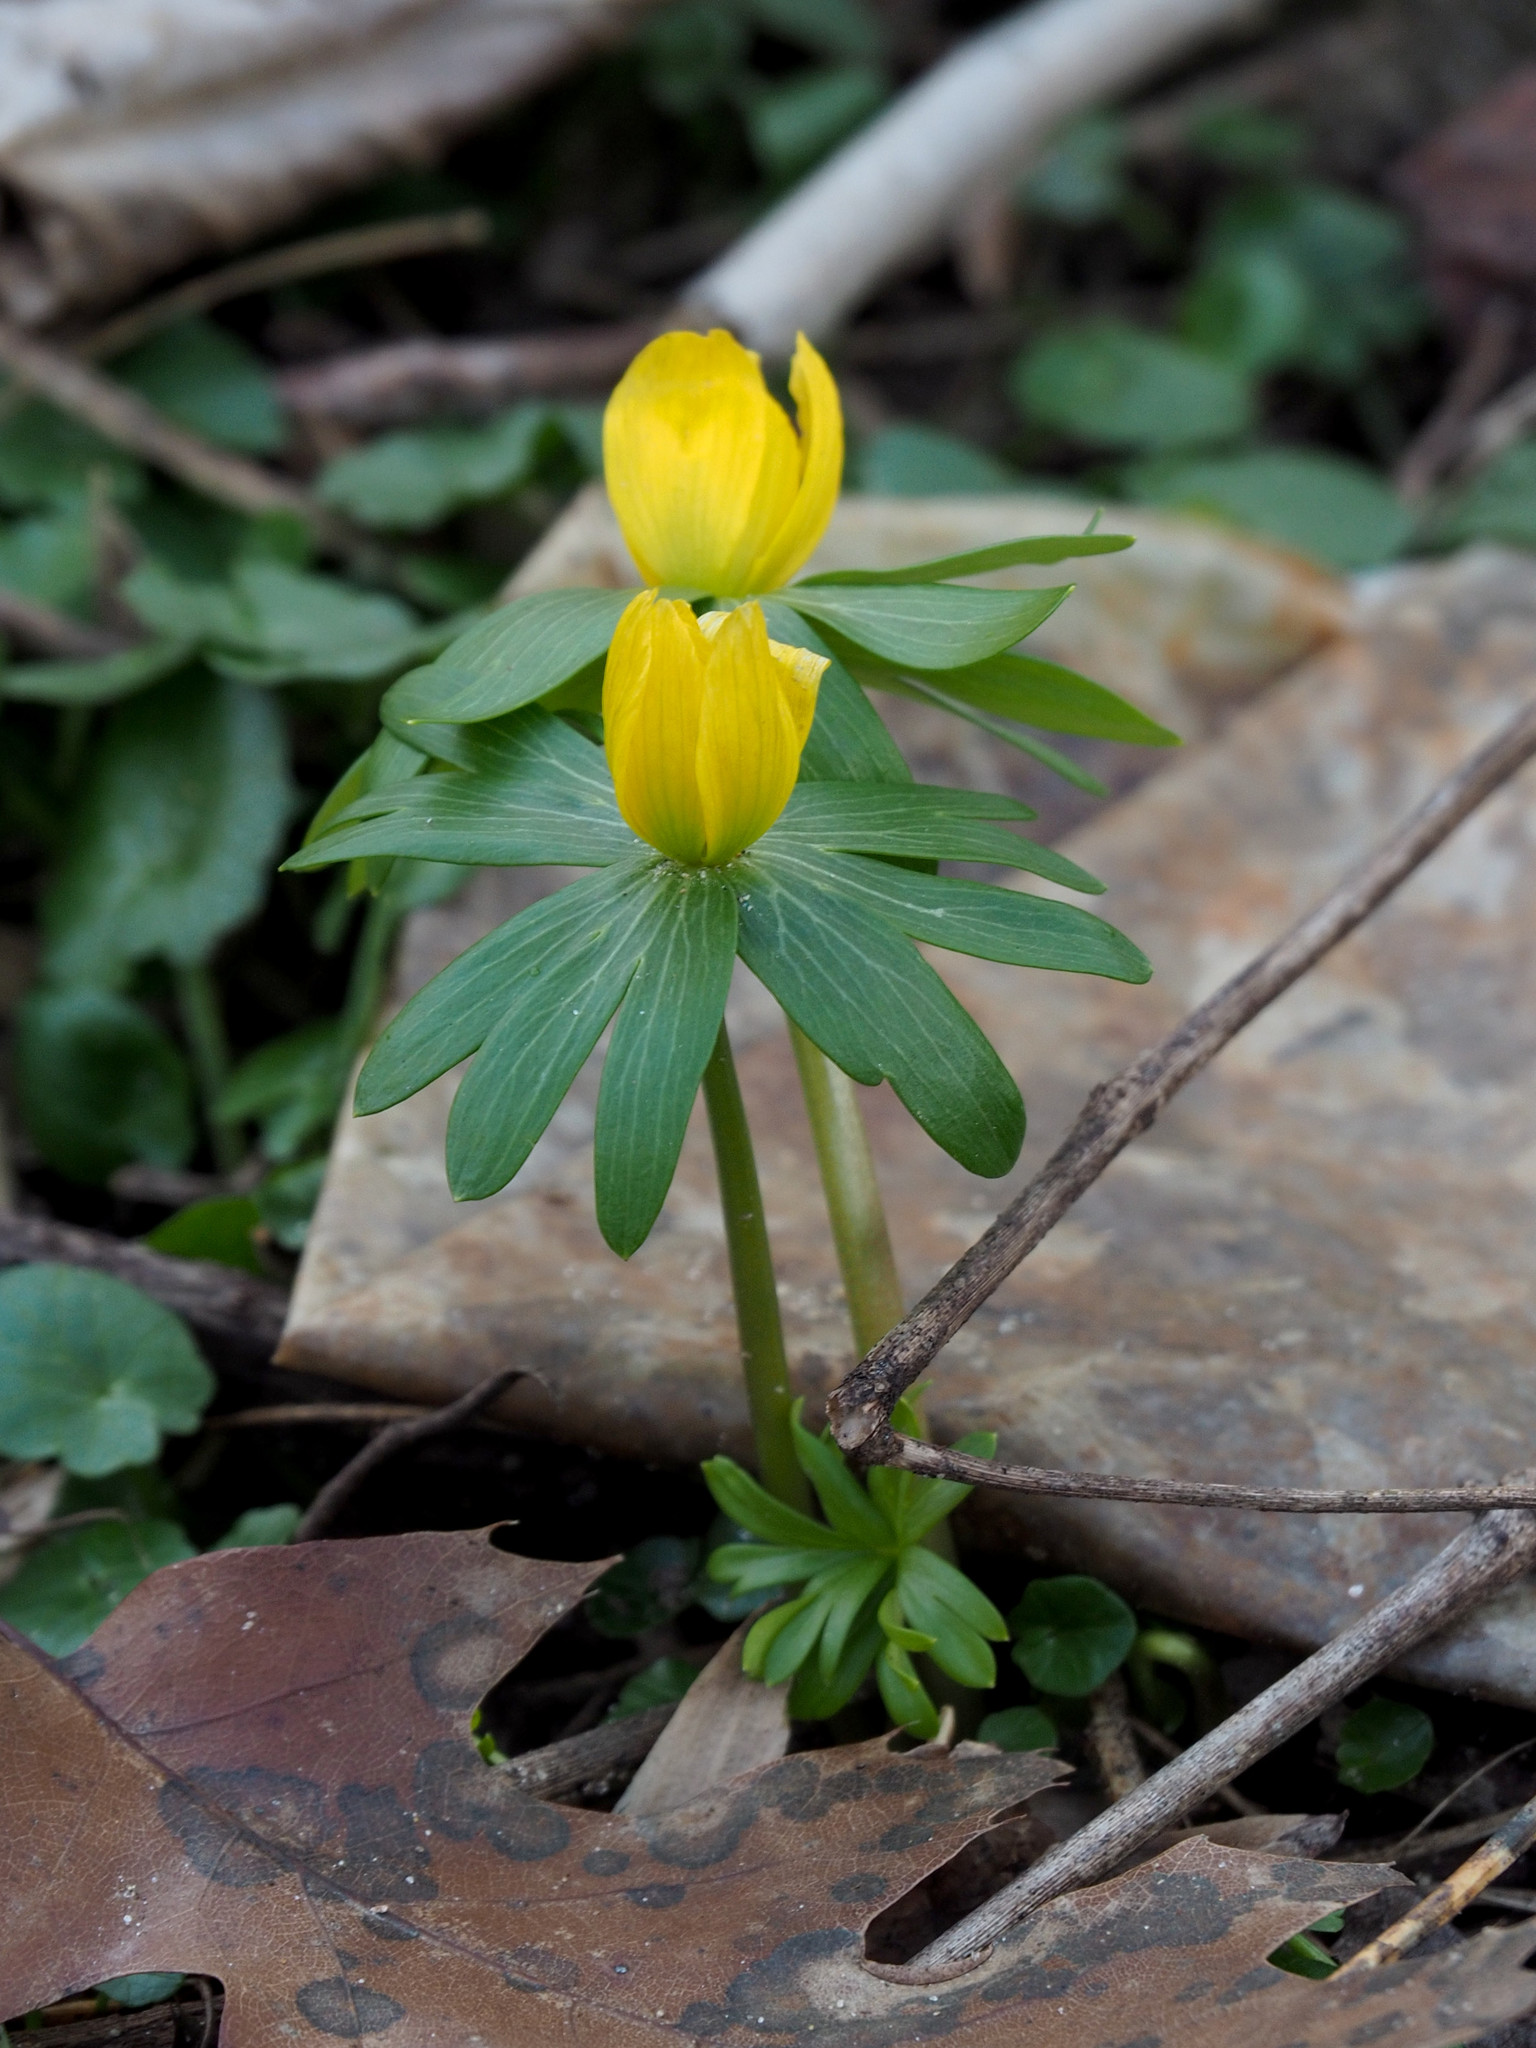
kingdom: Plantae
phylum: Tracheophyta
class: Magnoliopsida
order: Ranunculales
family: Ranunculaceae
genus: Eranthis
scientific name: Eranthis hyemalis
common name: Winter aconite
